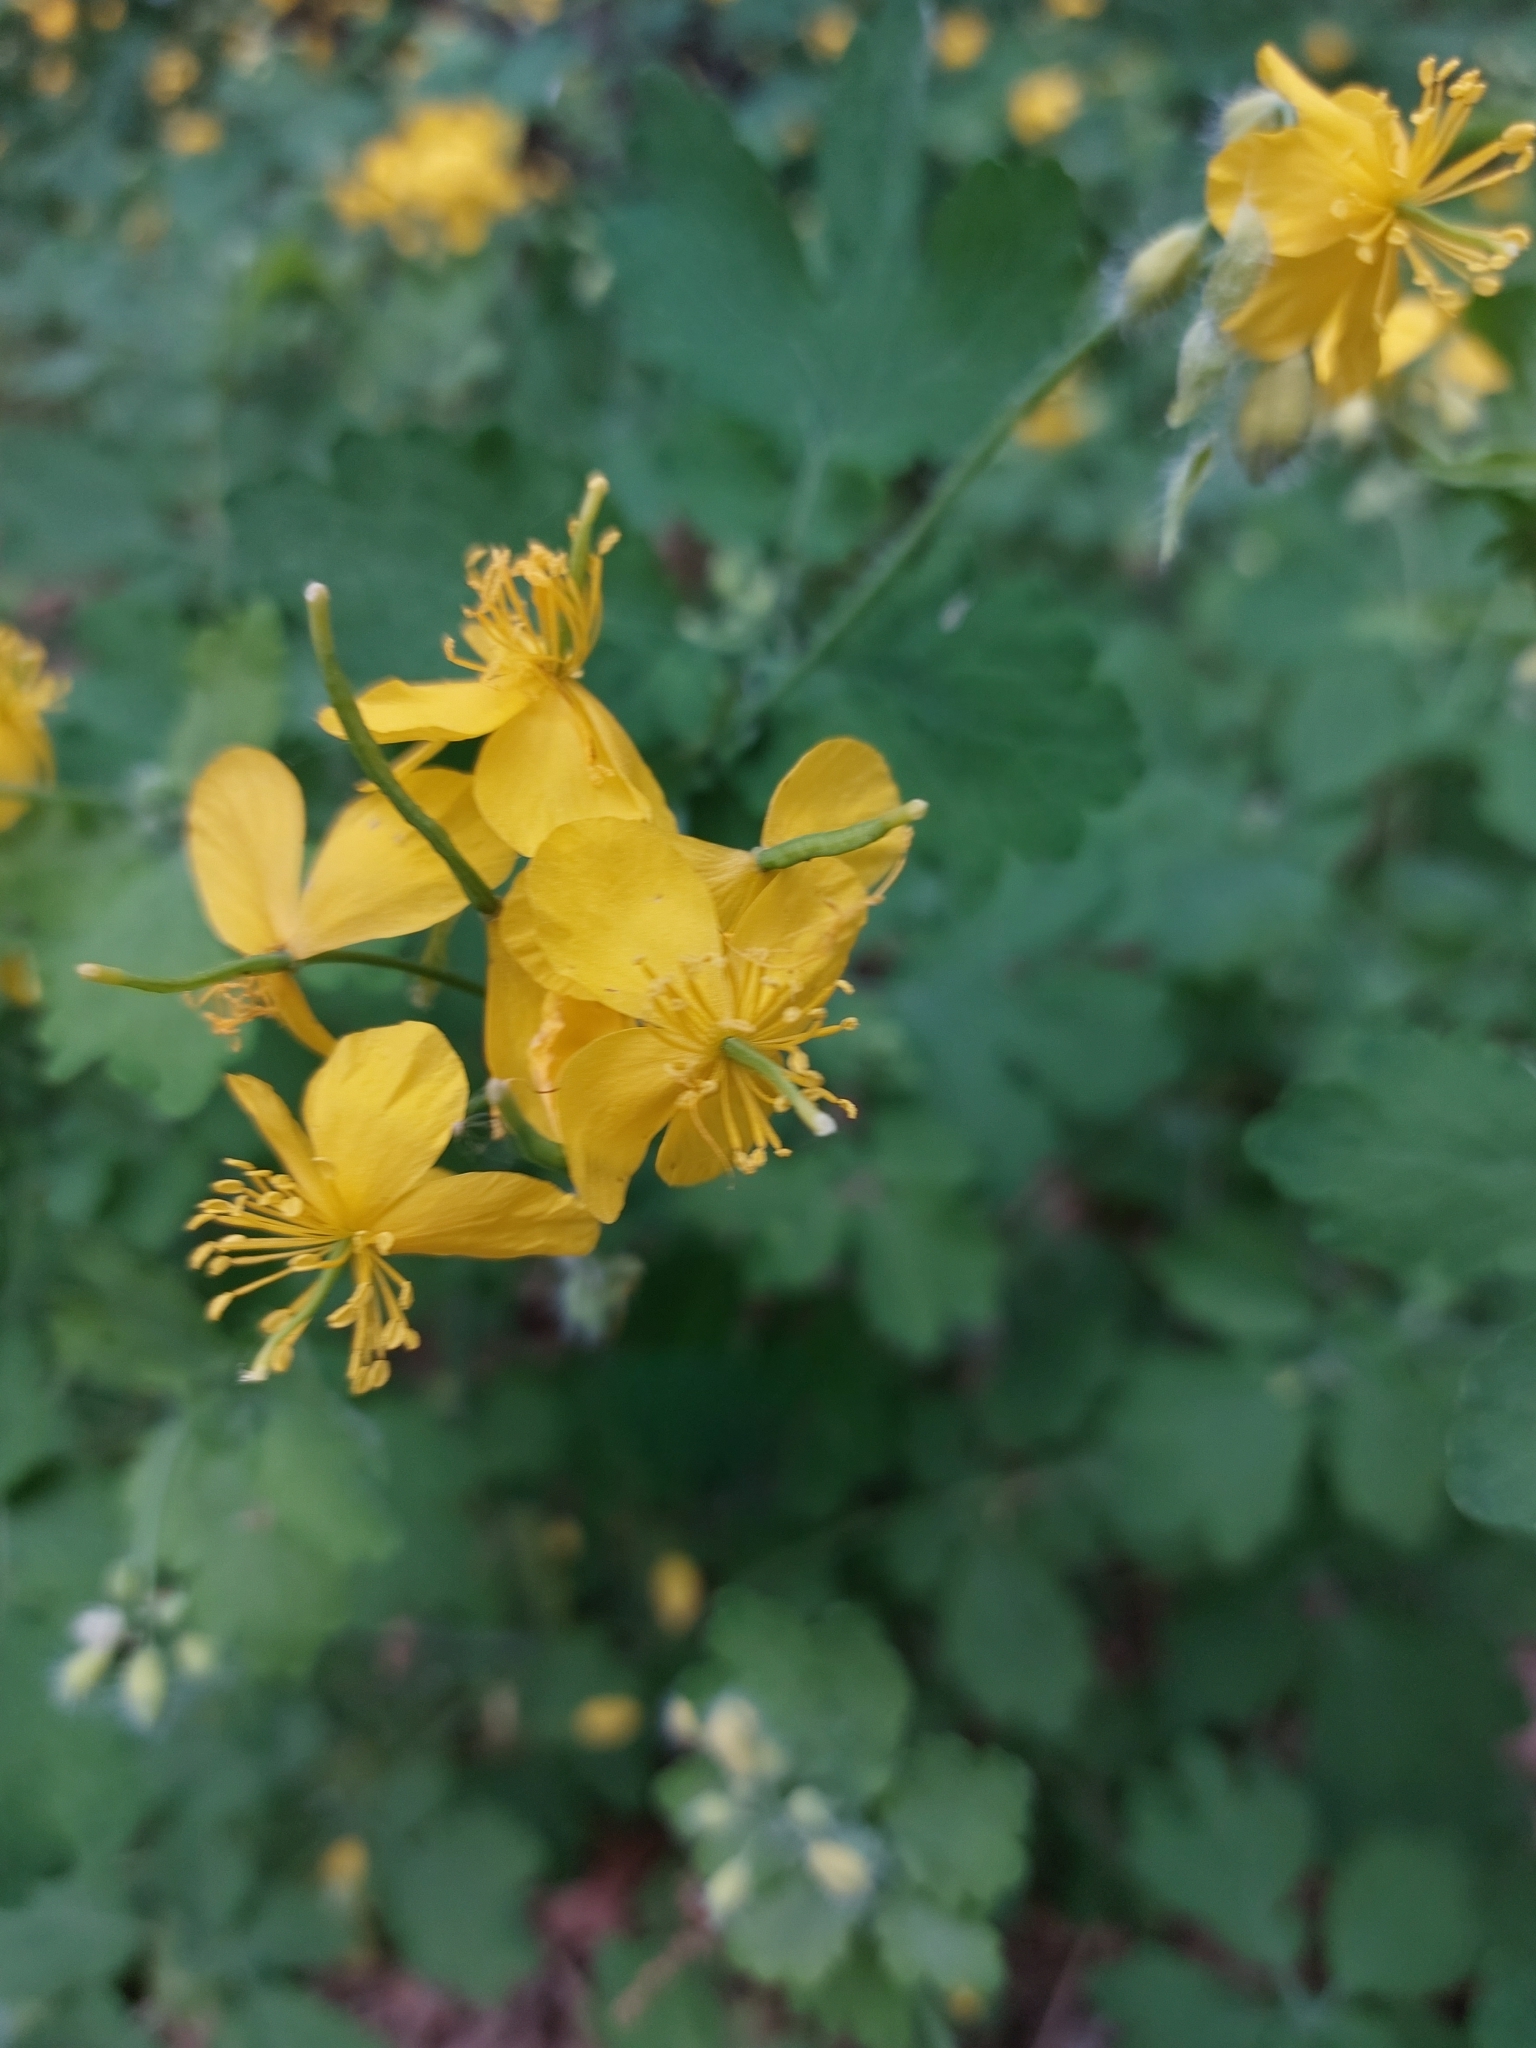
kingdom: Plantae
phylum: Tracheophyta
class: Magnoliopsida
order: Ranunculales
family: Papaveraceae
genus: Chelidonium
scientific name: Chelidonium majus
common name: Greater celandine
